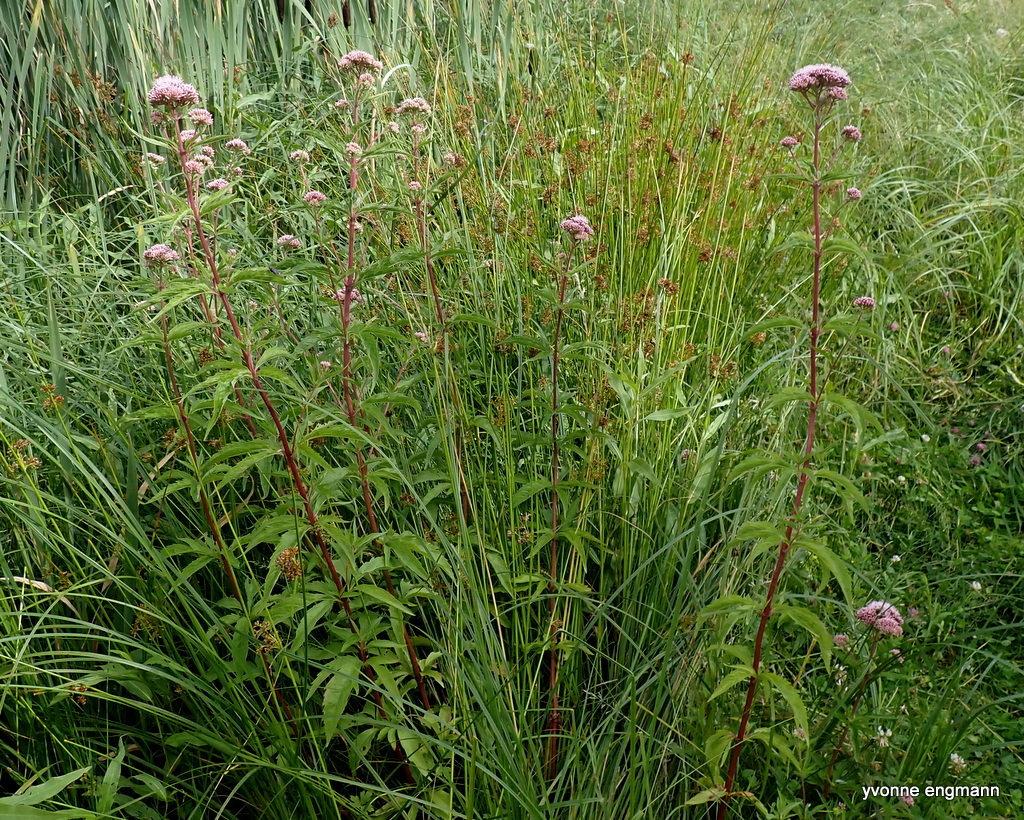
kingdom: Plantae
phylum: Tracheophyta
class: Magnoliopsida
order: Asterales
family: Asteraceae
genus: Eupatorium
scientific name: Eupatorium cannabinum
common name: Hemp-agrimony
